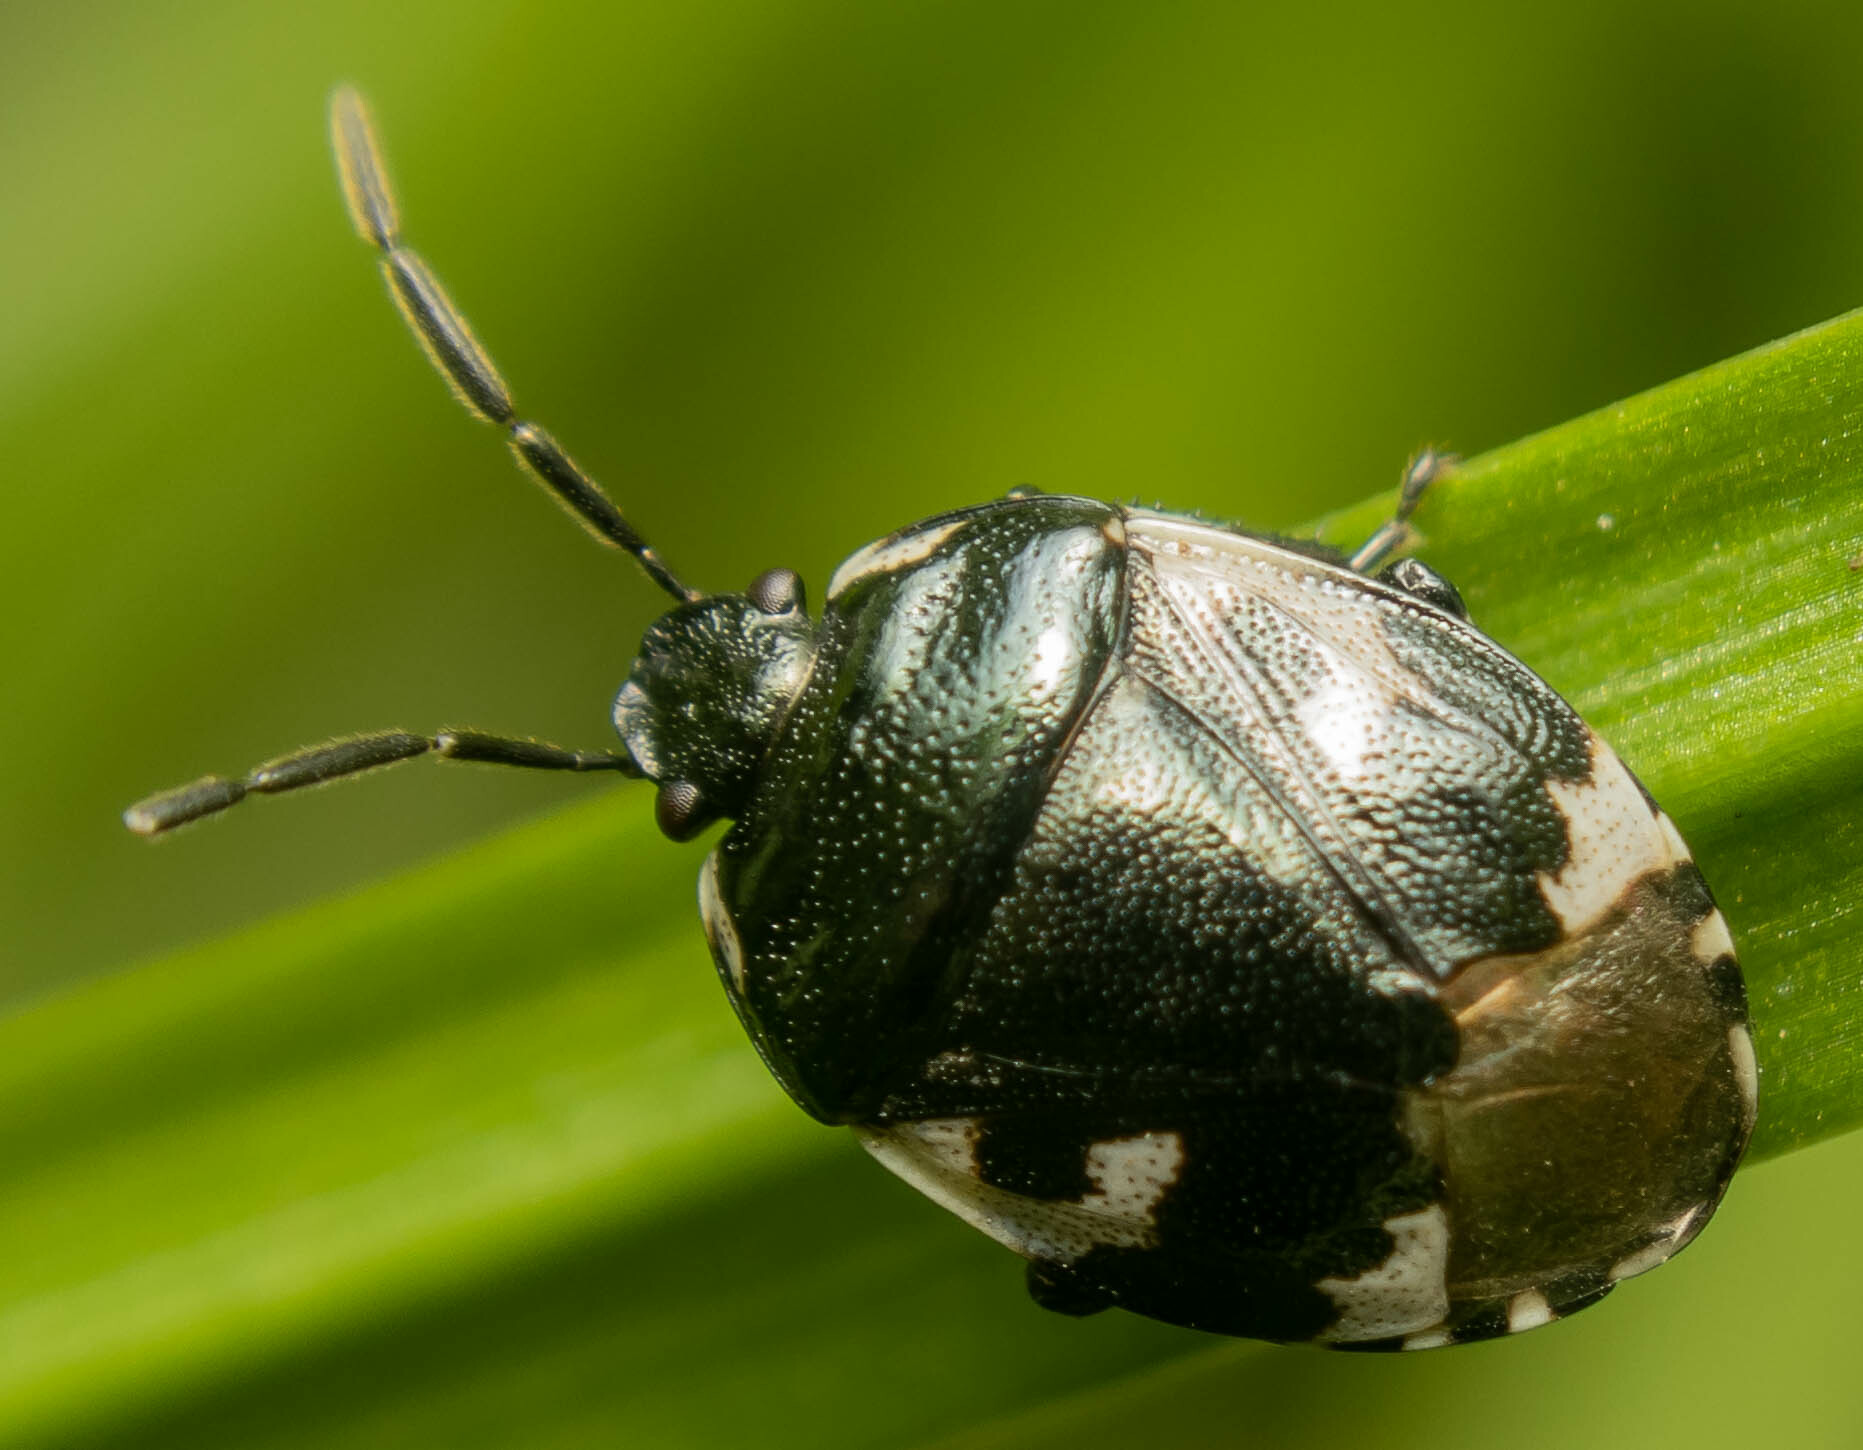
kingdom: Animalia
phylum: Arthropoda
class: Insecta
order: Hemiptera
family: Cydnidae
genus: Tritomegas
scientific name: Tritomegas bicolor
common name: Pied shieldbug
